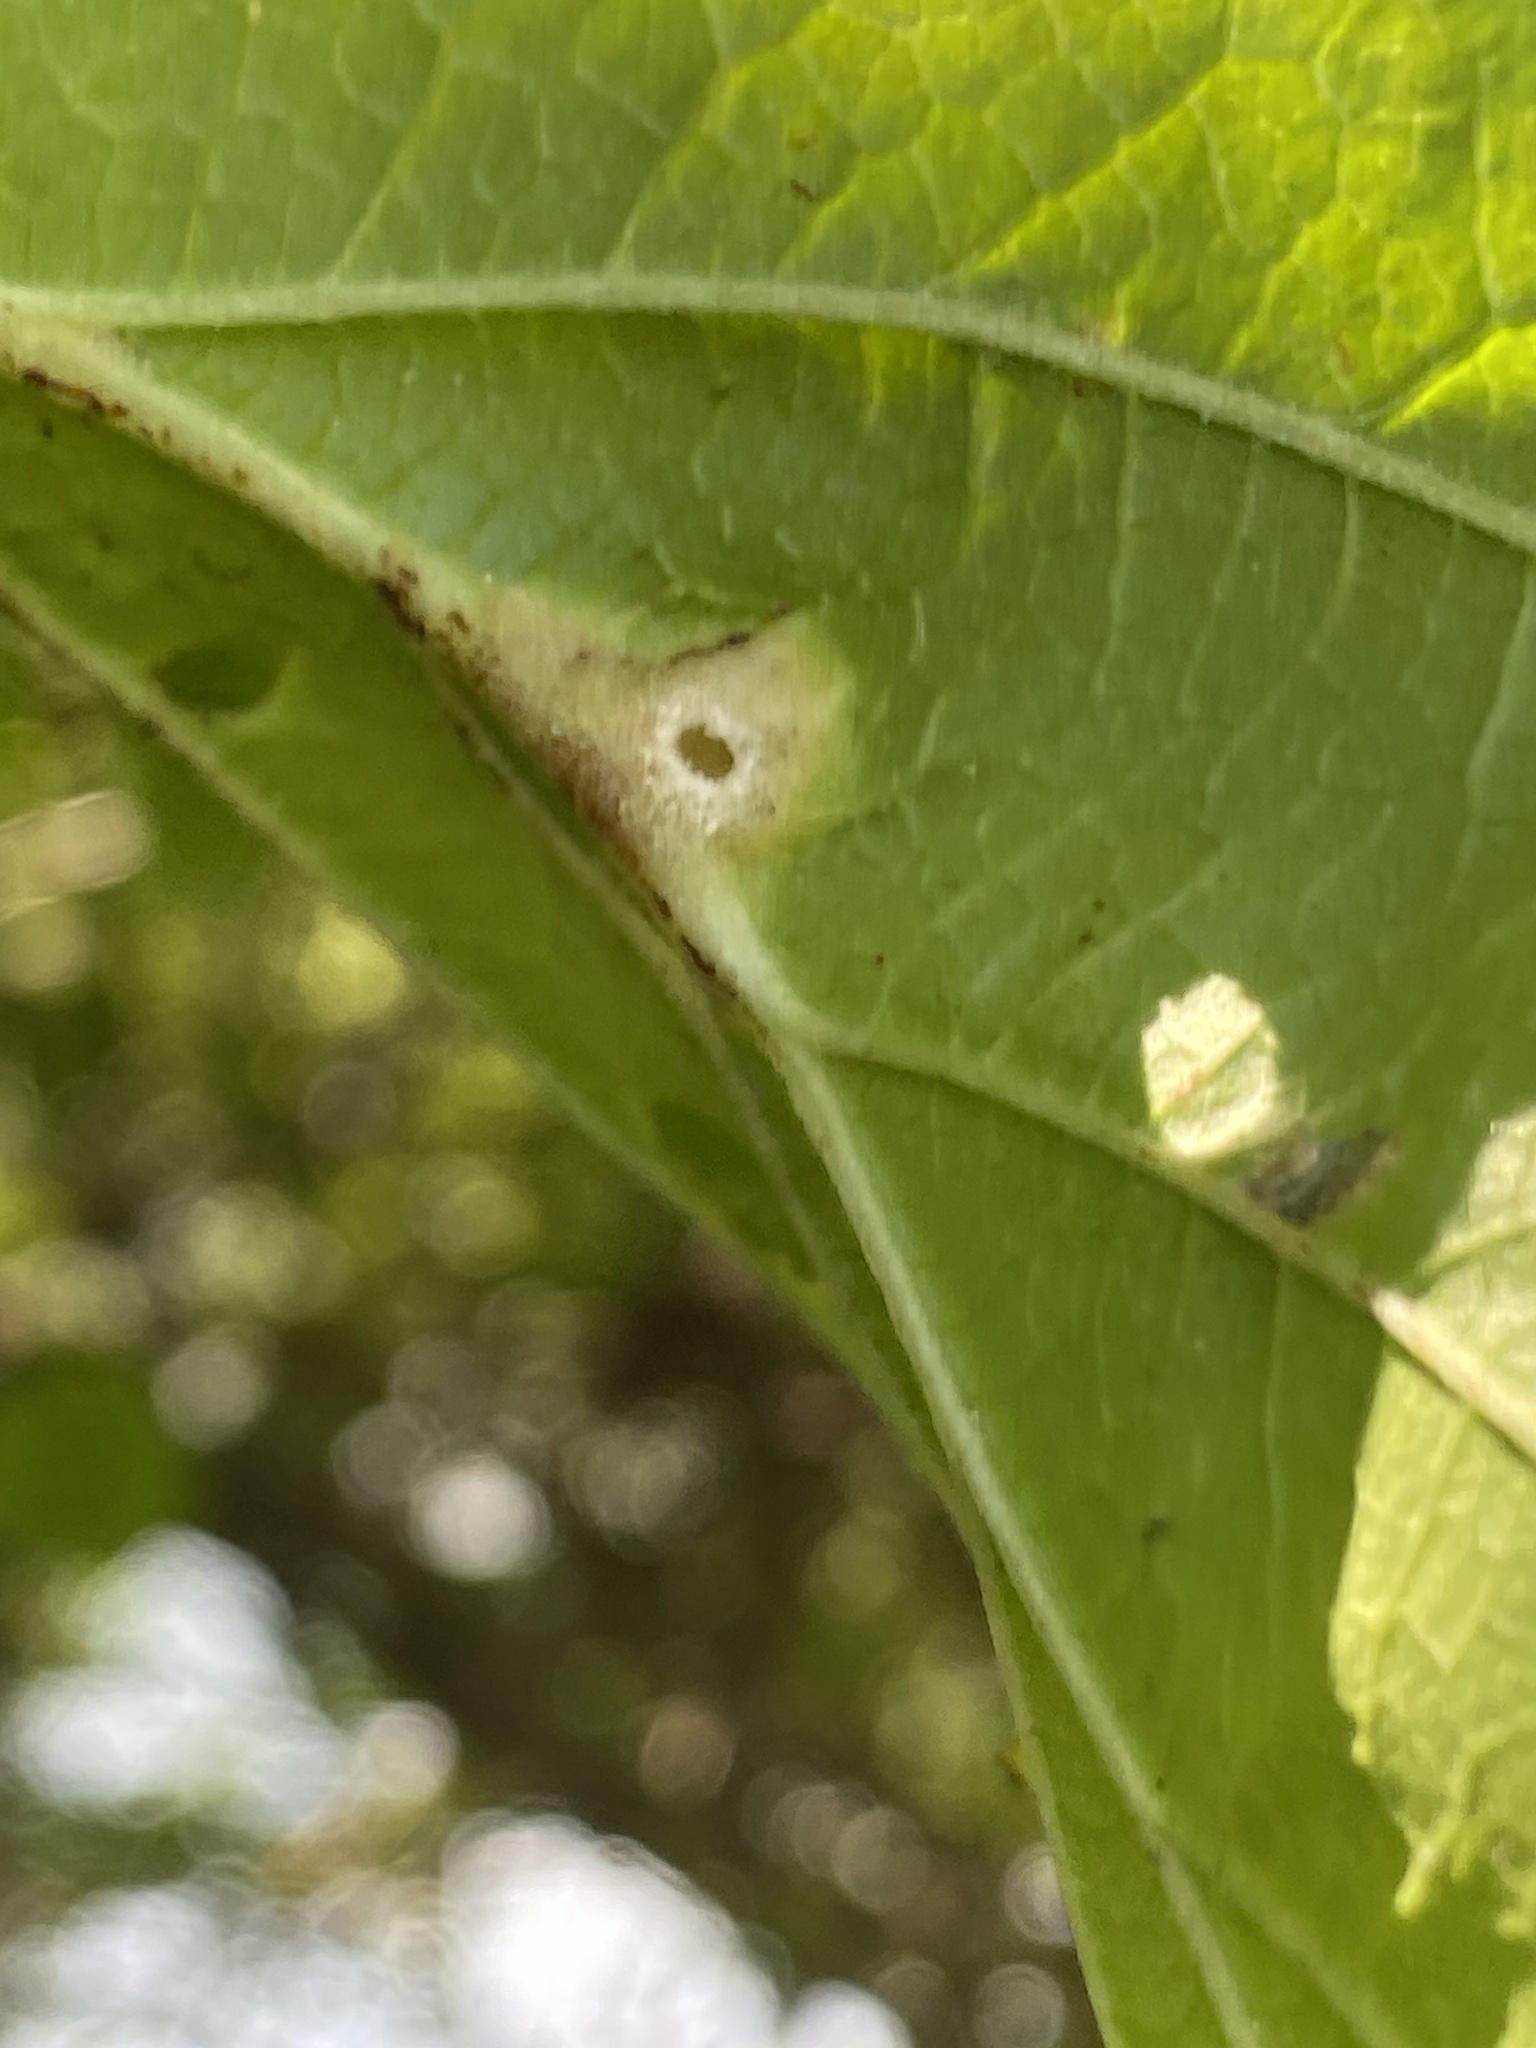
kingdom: Animalia
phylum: Arthropoda
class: Insecta
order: Hemiptera
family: Aphididae
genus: Hormaphis
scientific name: Hormaphis hamamelidis
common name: Witch-hazel cone gall aphid
